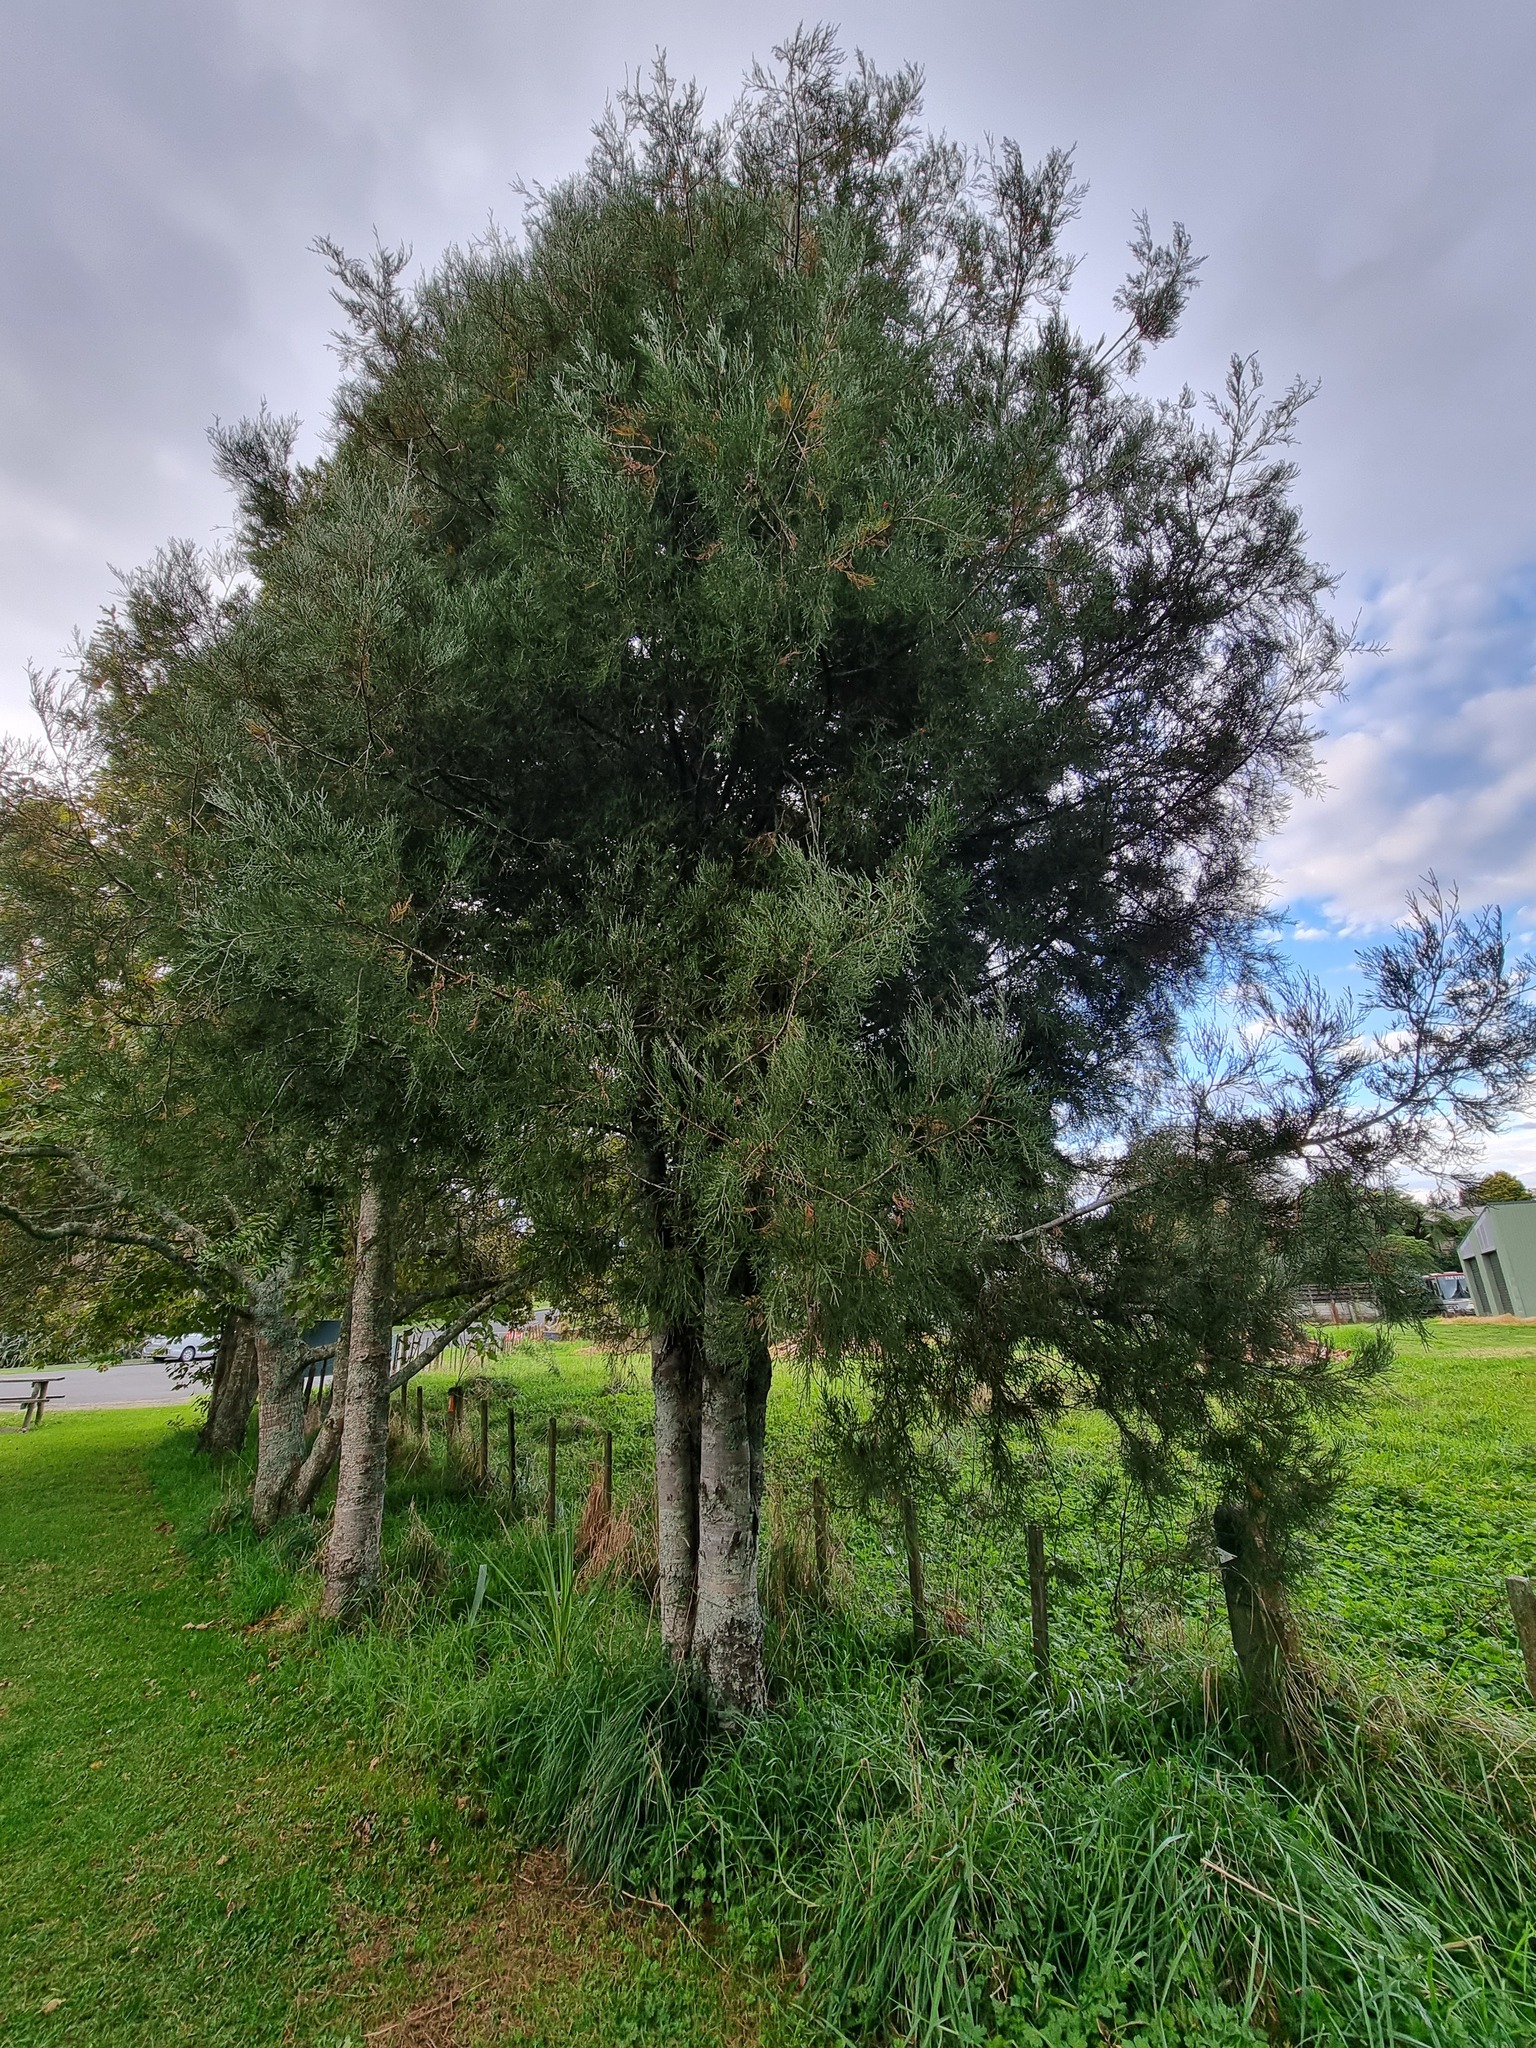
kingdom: Plantae
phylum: Tracheophyta
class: Pinopsida
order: Pinales
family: Podocarpaceae
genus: Dacrycarpus
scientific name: Dacrycarpus dacrydioides
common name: White pine
